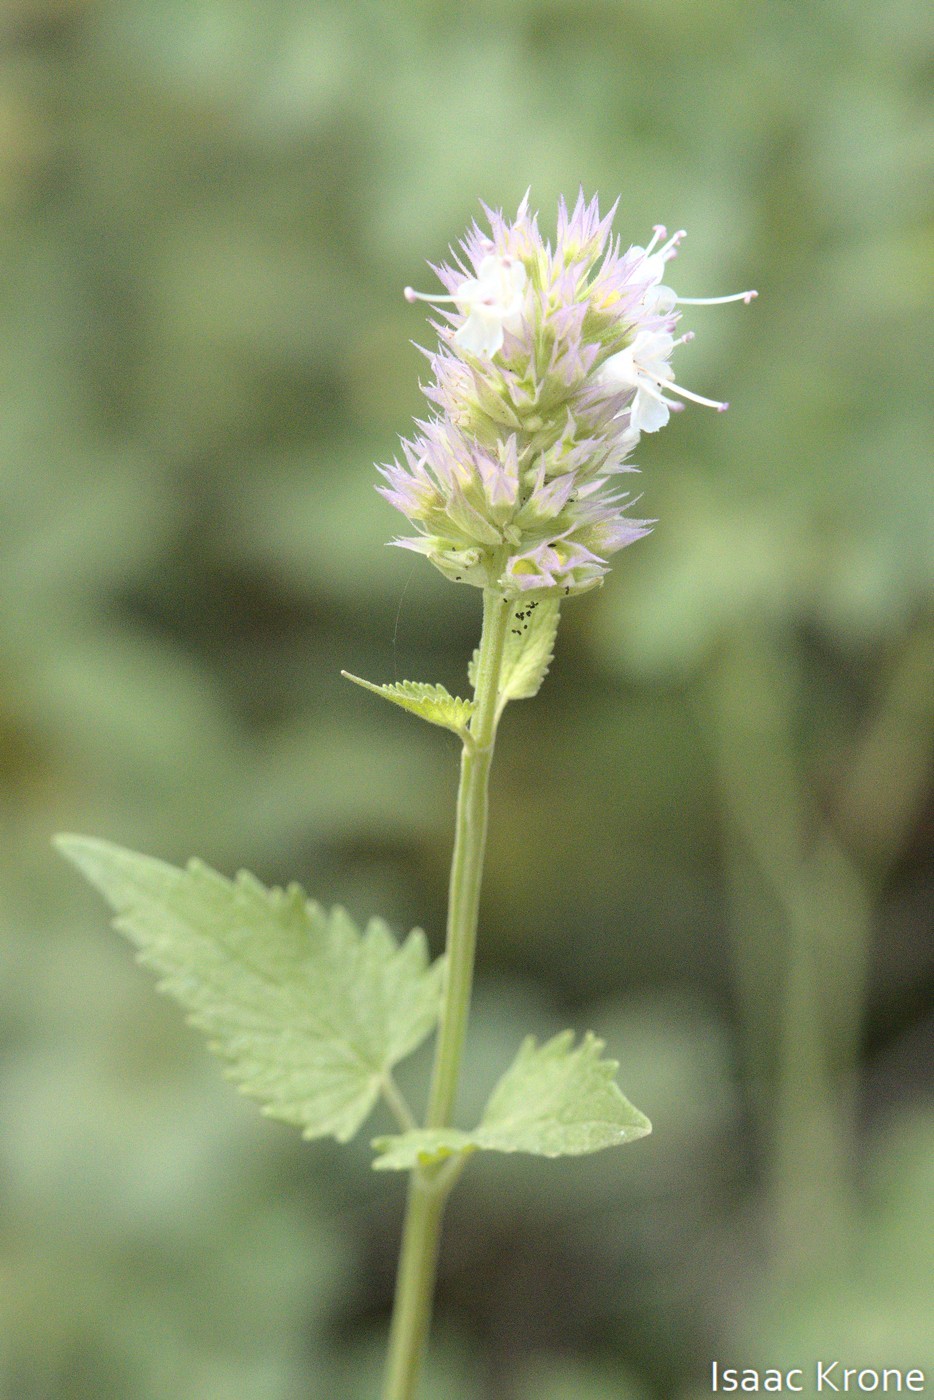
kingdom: Plantae
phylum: Tracheophyta
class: Magnoliopsida
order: Lamiales
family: Lamiaceae
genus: Agastache
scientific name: Agastache urticifolia
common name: Horsemint giant hyssop
